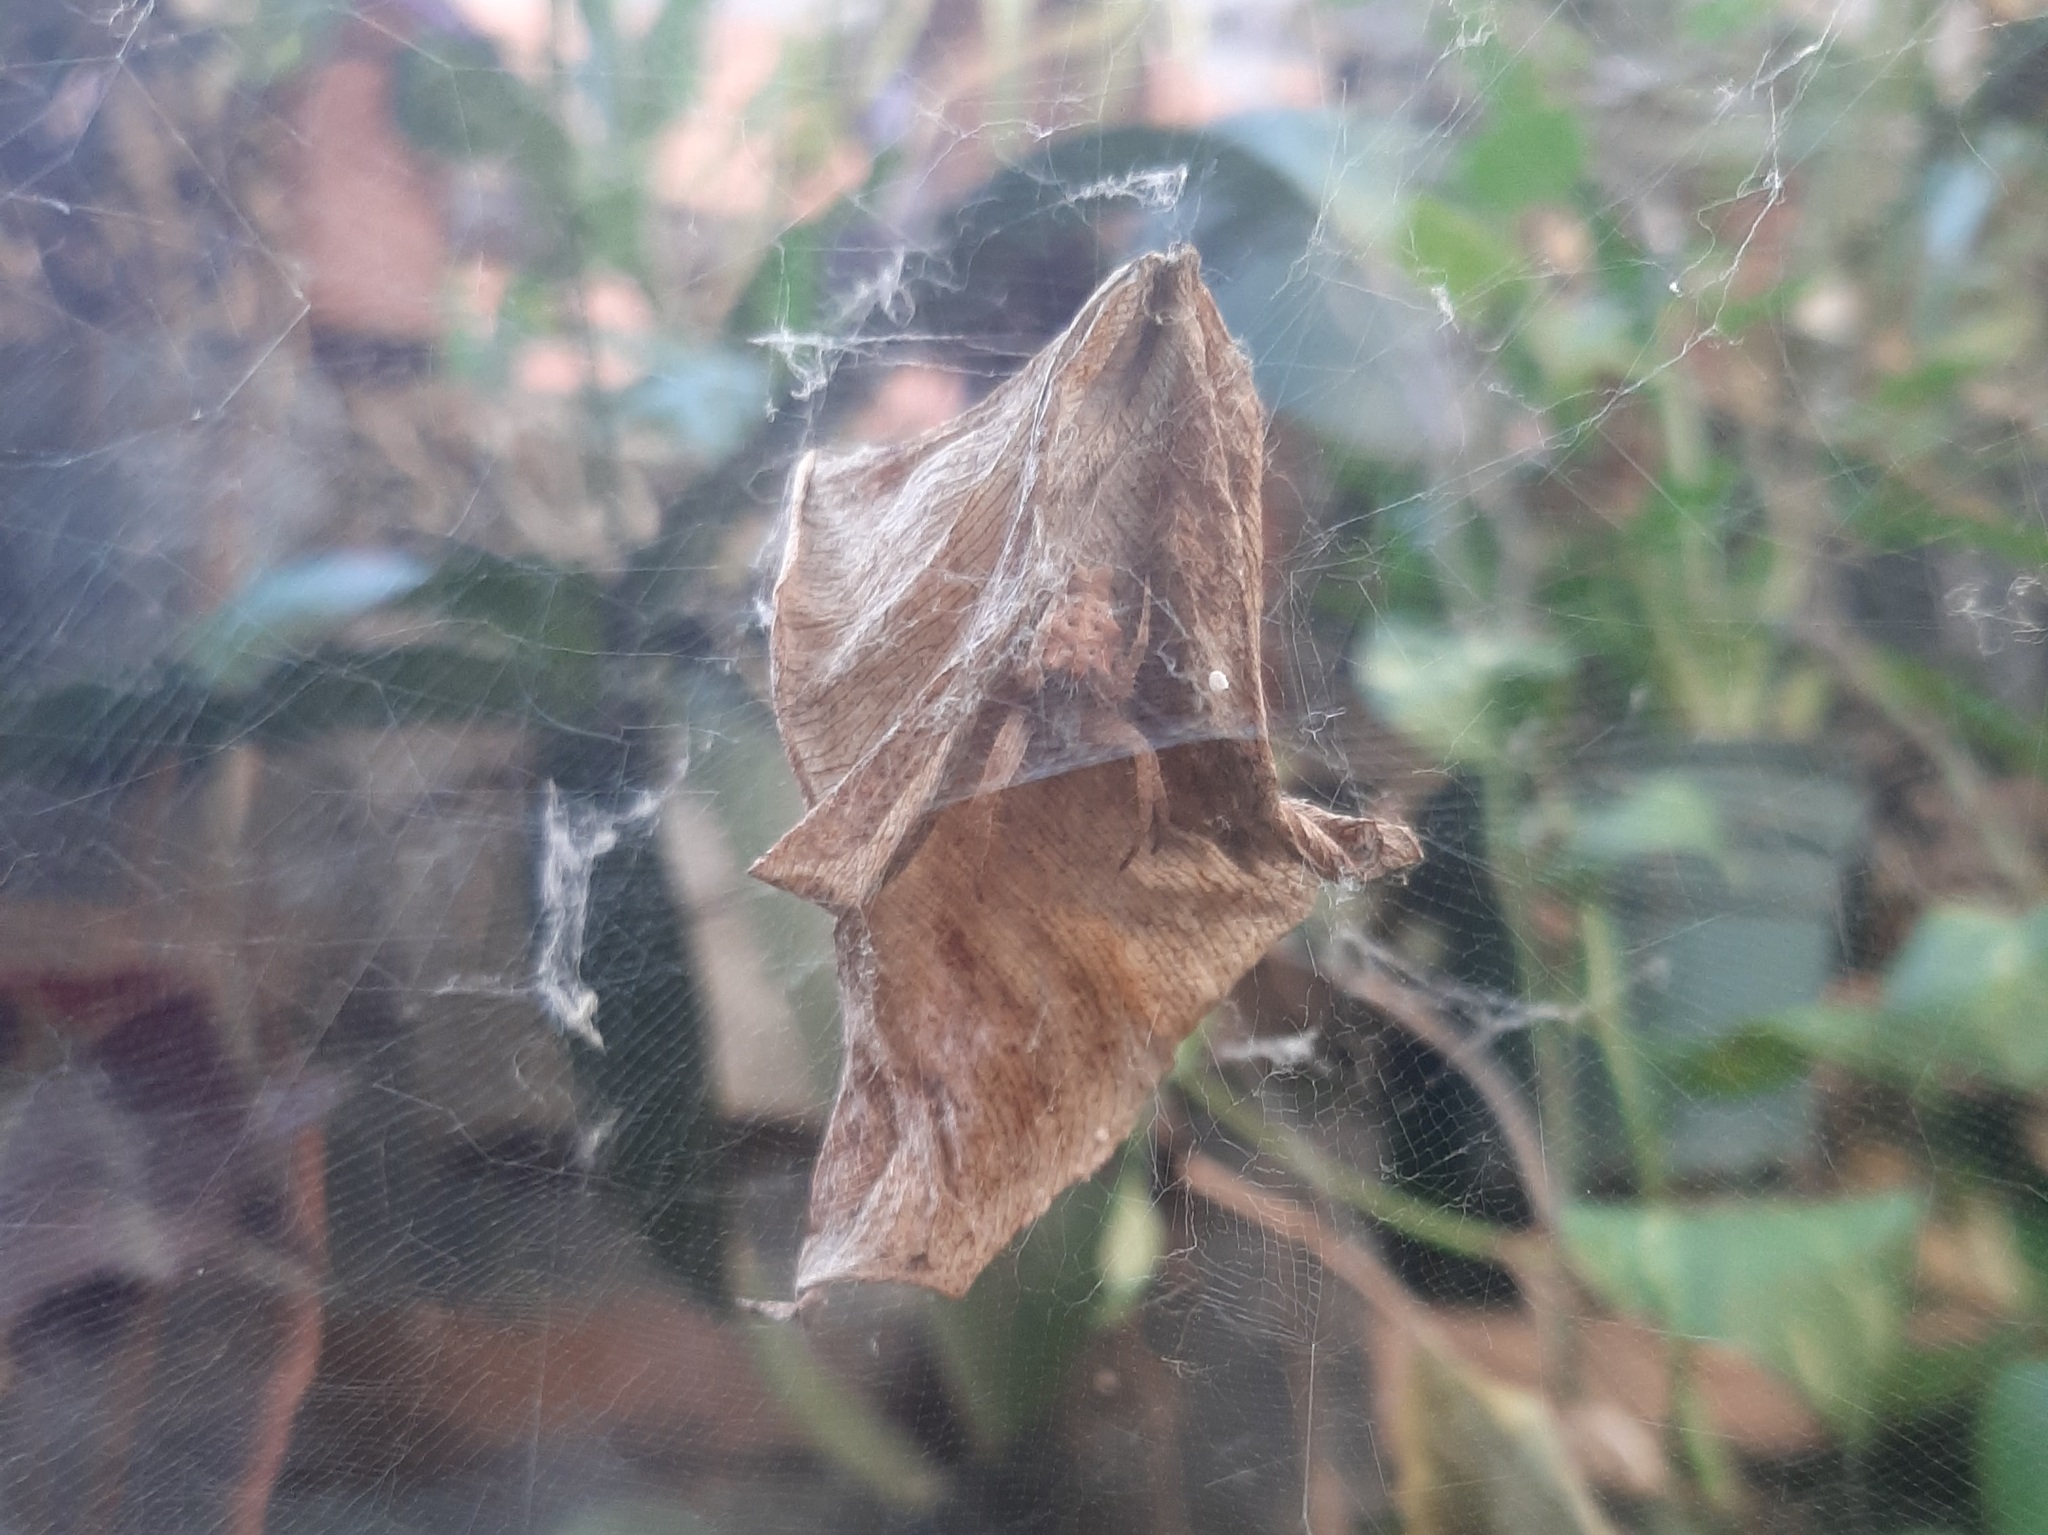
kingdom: Animalia
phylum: Arthropoda
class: Arachnida
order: Araneae
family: Araneidae
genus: Cyrtophora
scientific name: Cyrtophora citricola
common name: Orb weavers
